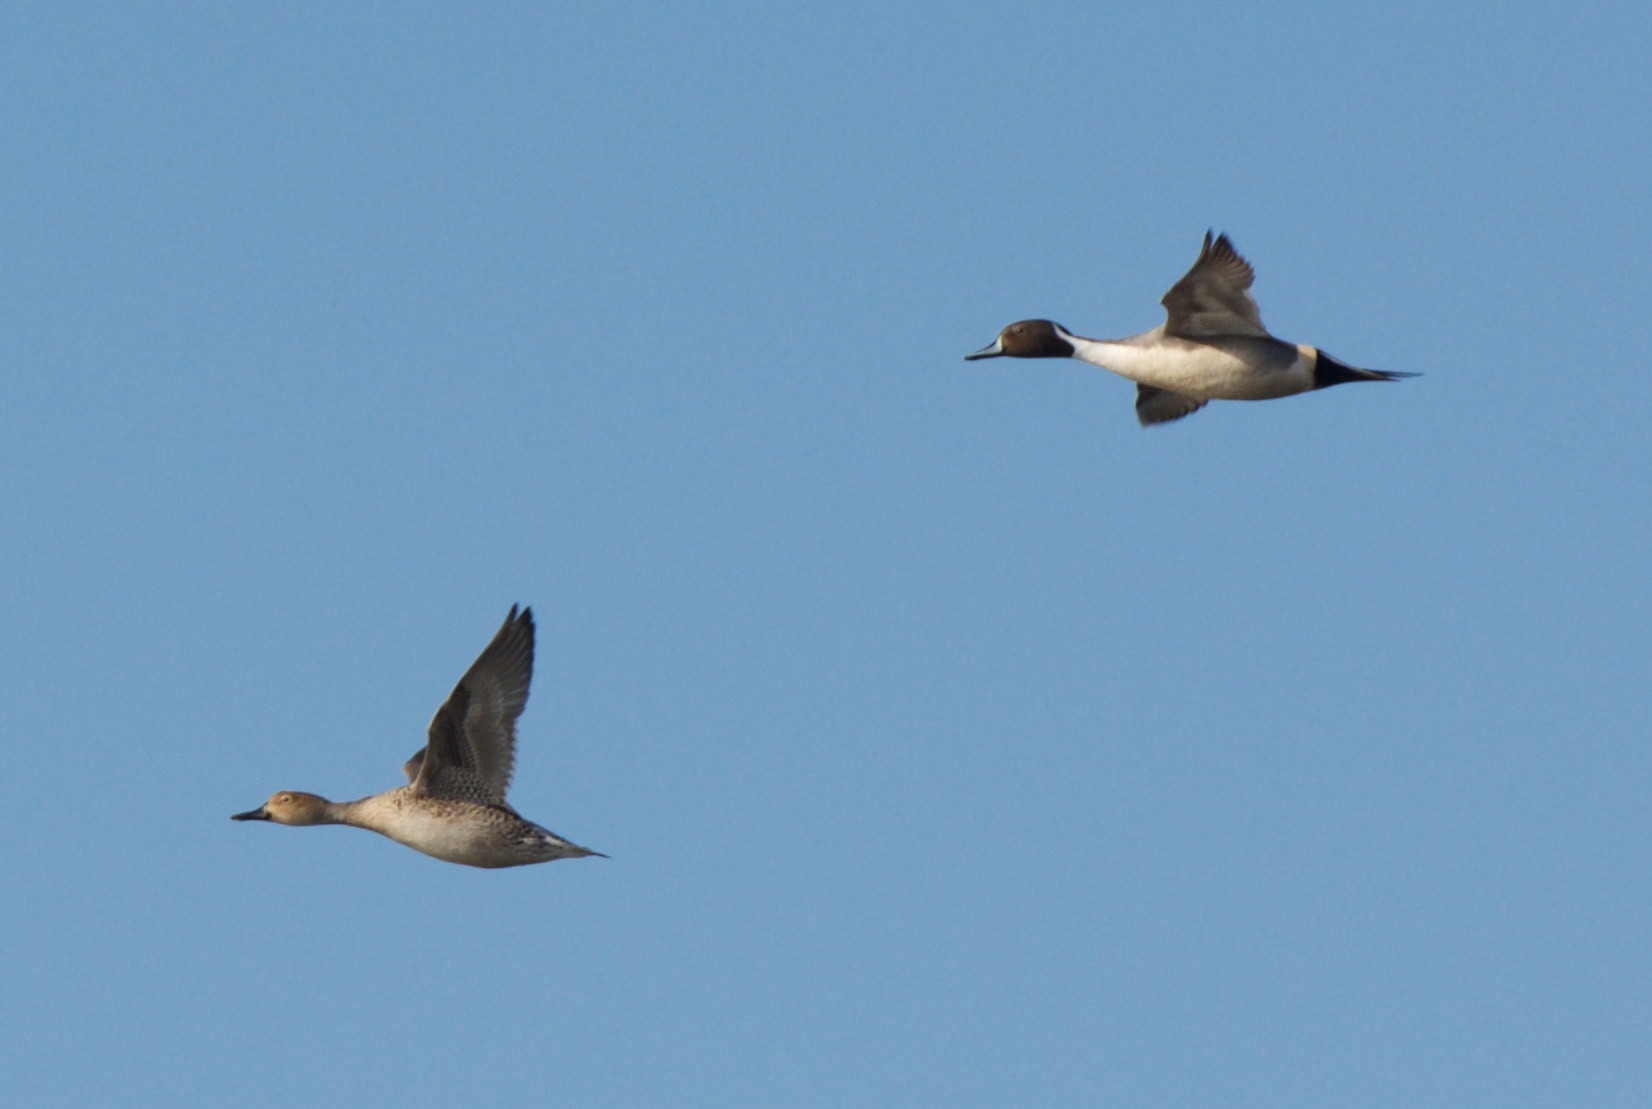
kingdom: Animalia
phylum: Chordata
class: Aves
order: Anseriformes
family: Anatidae
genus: Anas
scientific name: Anas acuta
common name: Northern pintail
